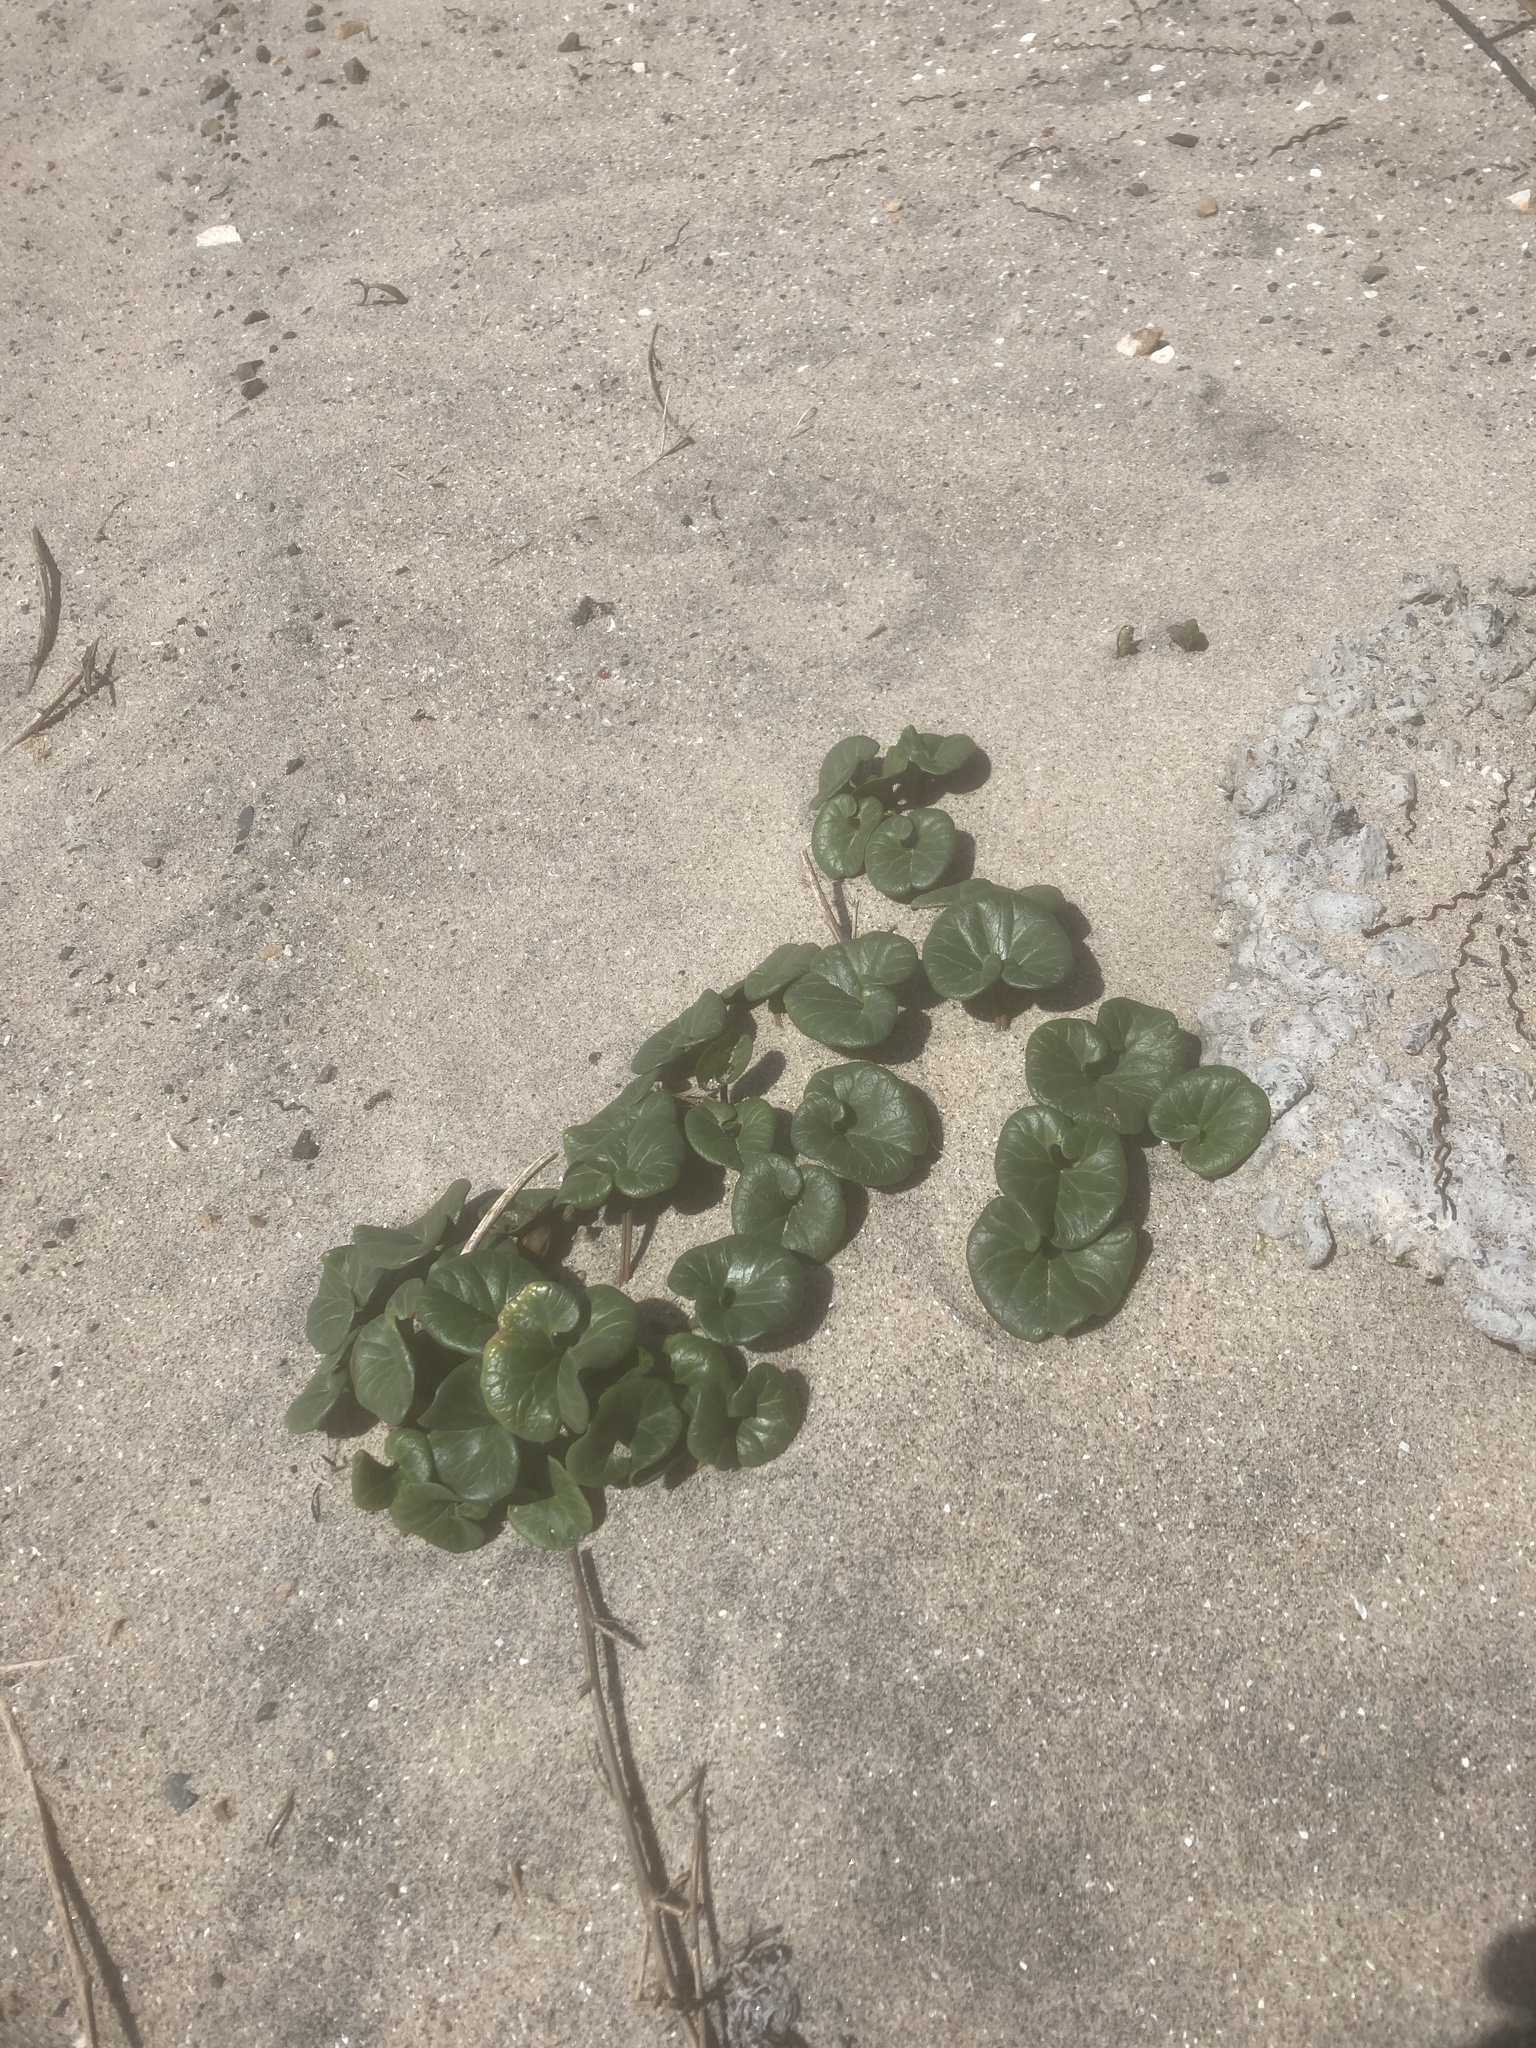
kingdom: Plantae
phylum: Tracheophyta
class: Magnoliopsida
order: Solanales
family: Convolvulaceae
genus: Calystegia
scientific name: Calystegia soldanella
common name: Sea bindweed
